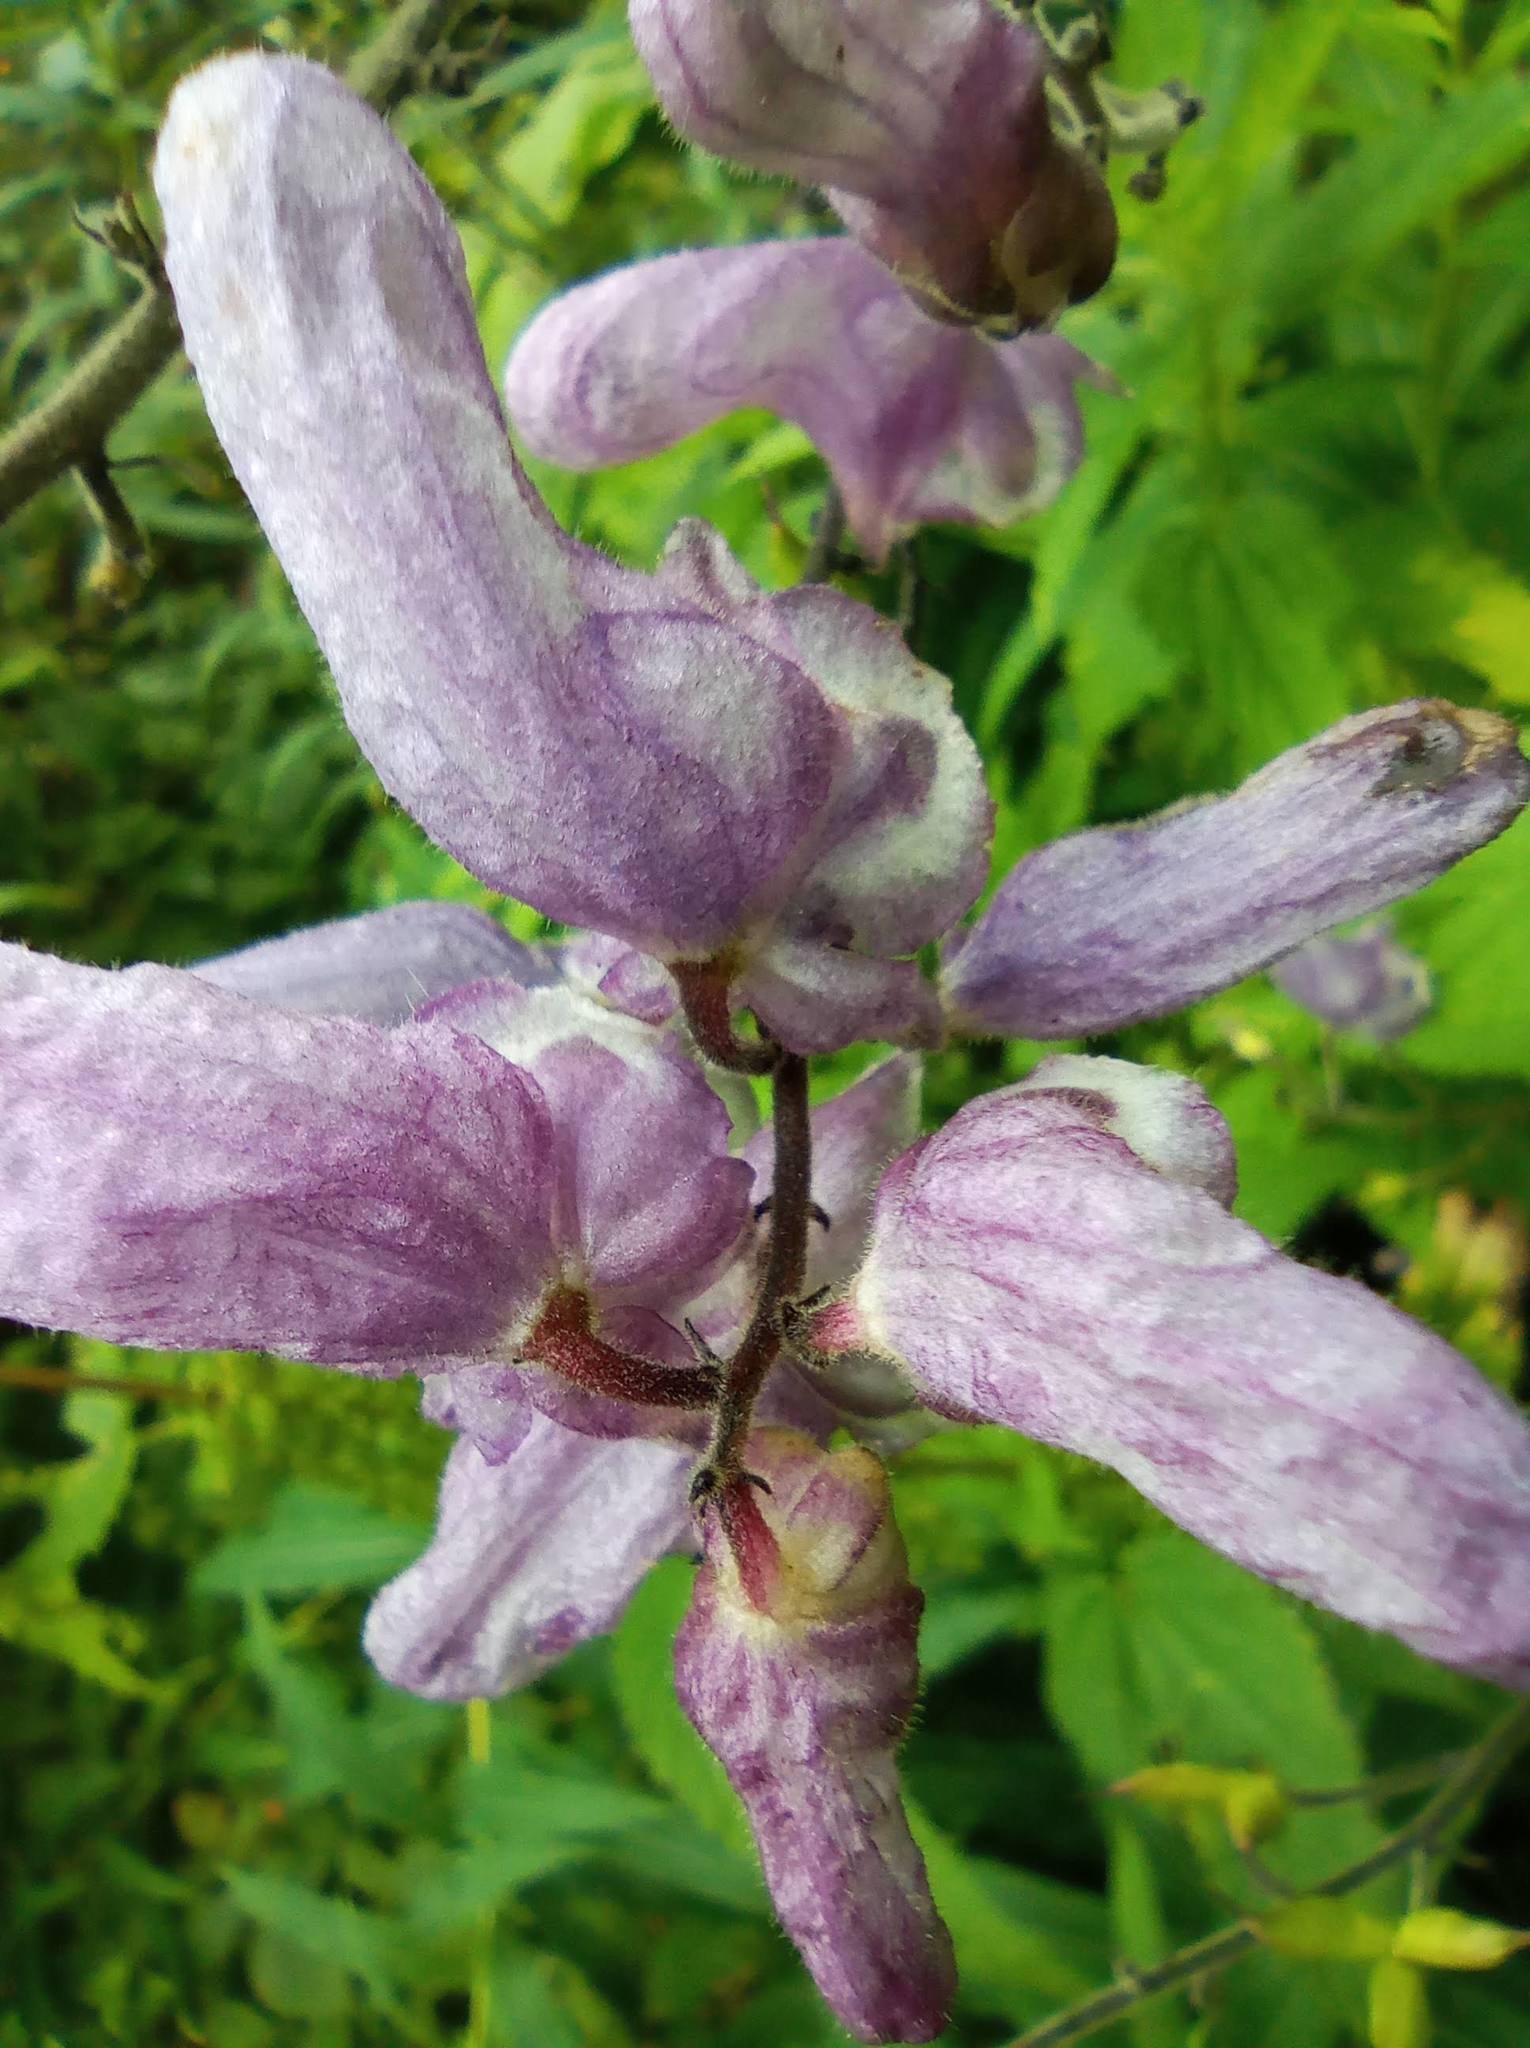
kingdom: Plantae
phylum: Tracheophyta
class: Magnoliopsida
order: Ranunculales
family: Ranunculaceae
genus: Aconitum
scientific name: Aconitum septentrionale
